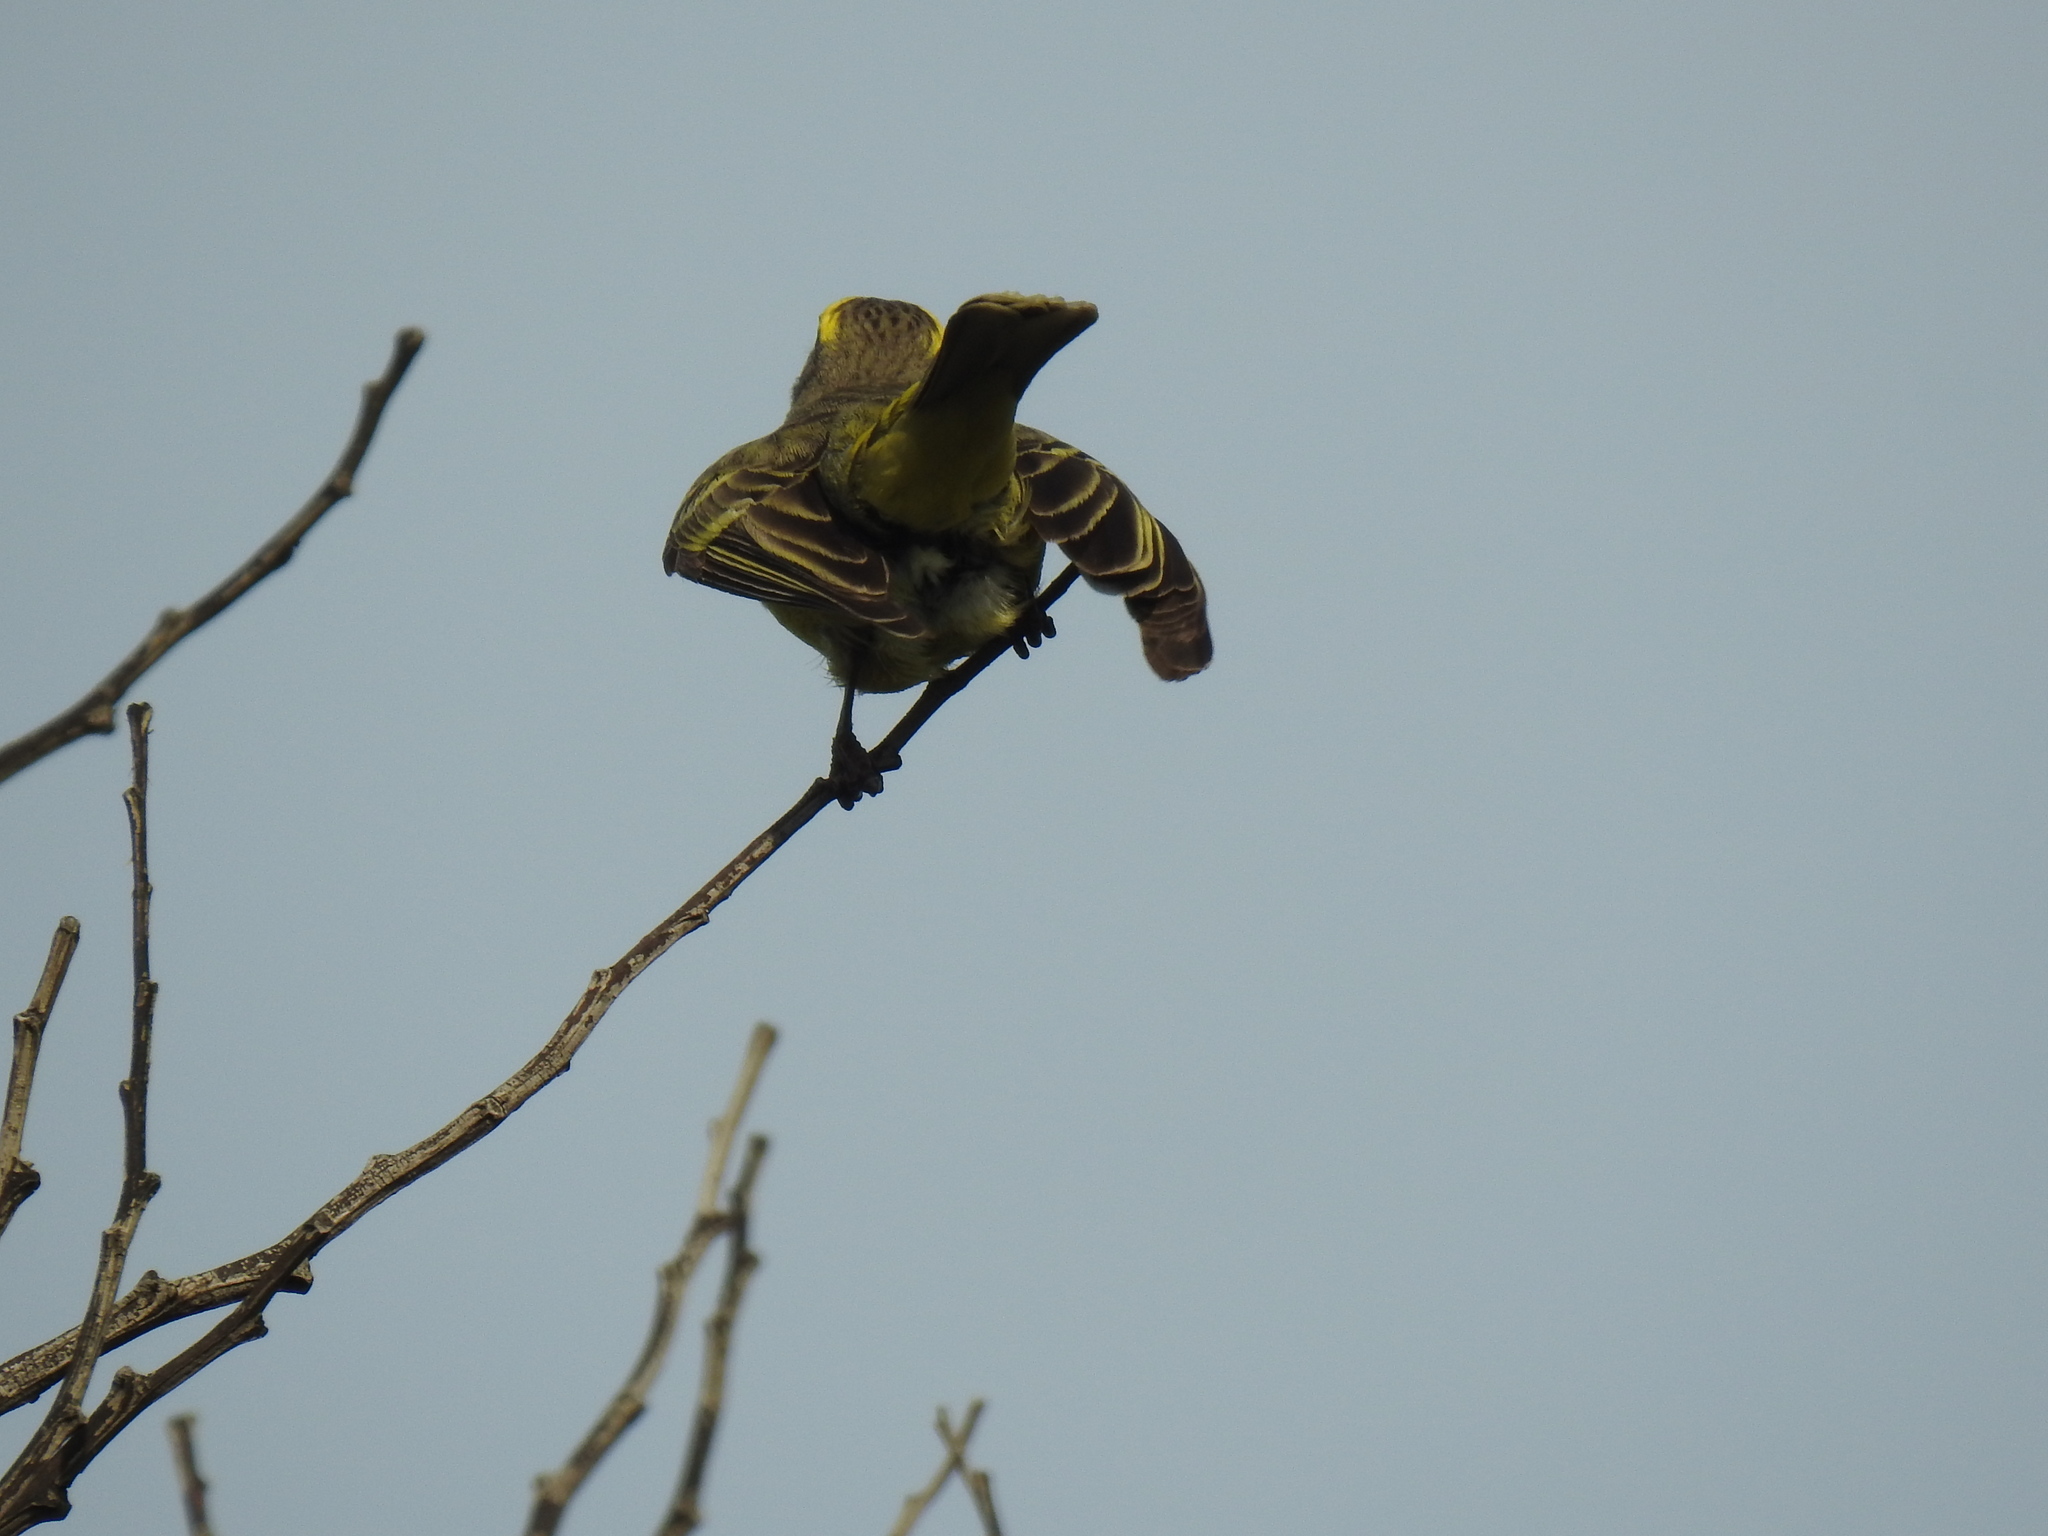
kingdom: Animalia
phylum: Chordata
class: Aves
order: Passeriformes
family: Fringillidae
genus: Crithagra
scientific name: Crithagra mozambica
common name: Yellow-fronted canary
